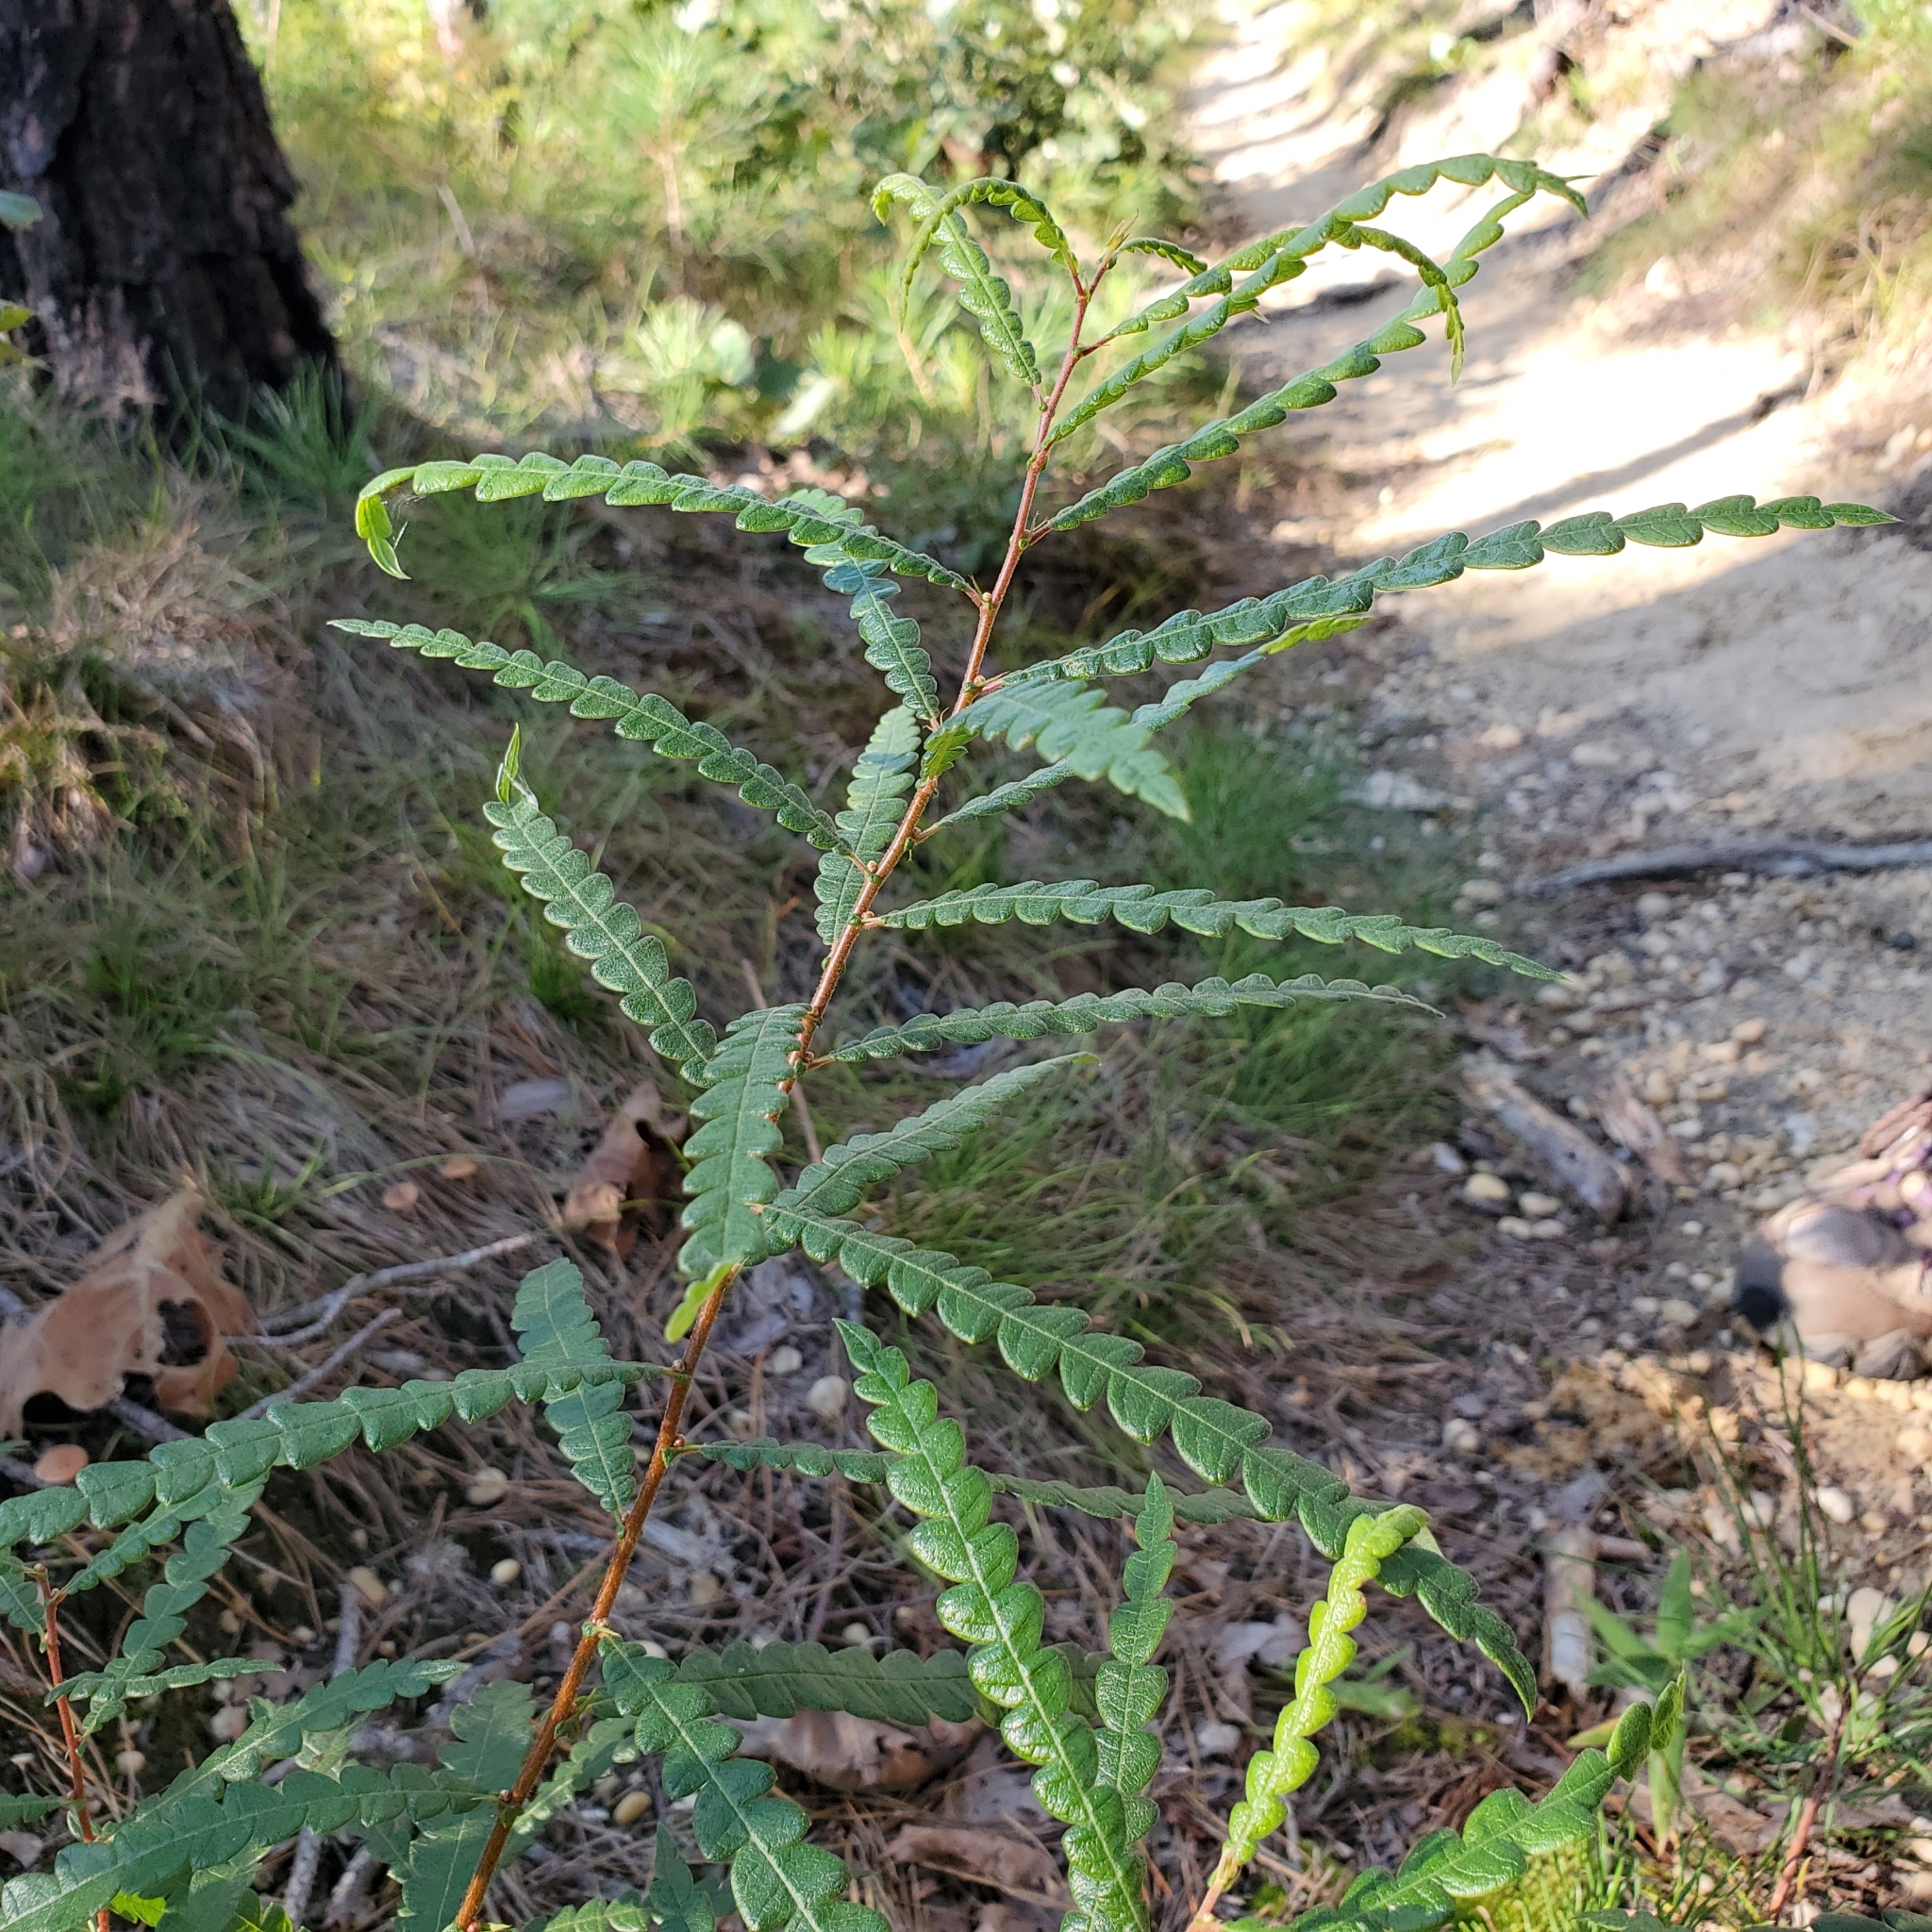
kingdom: Plantae
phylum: Tracheophyta
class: Magnoliopsida
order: Fagales
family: Myricaceae
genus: Comptonia
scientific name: Comptonia peregrina
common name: Sweet-fern
